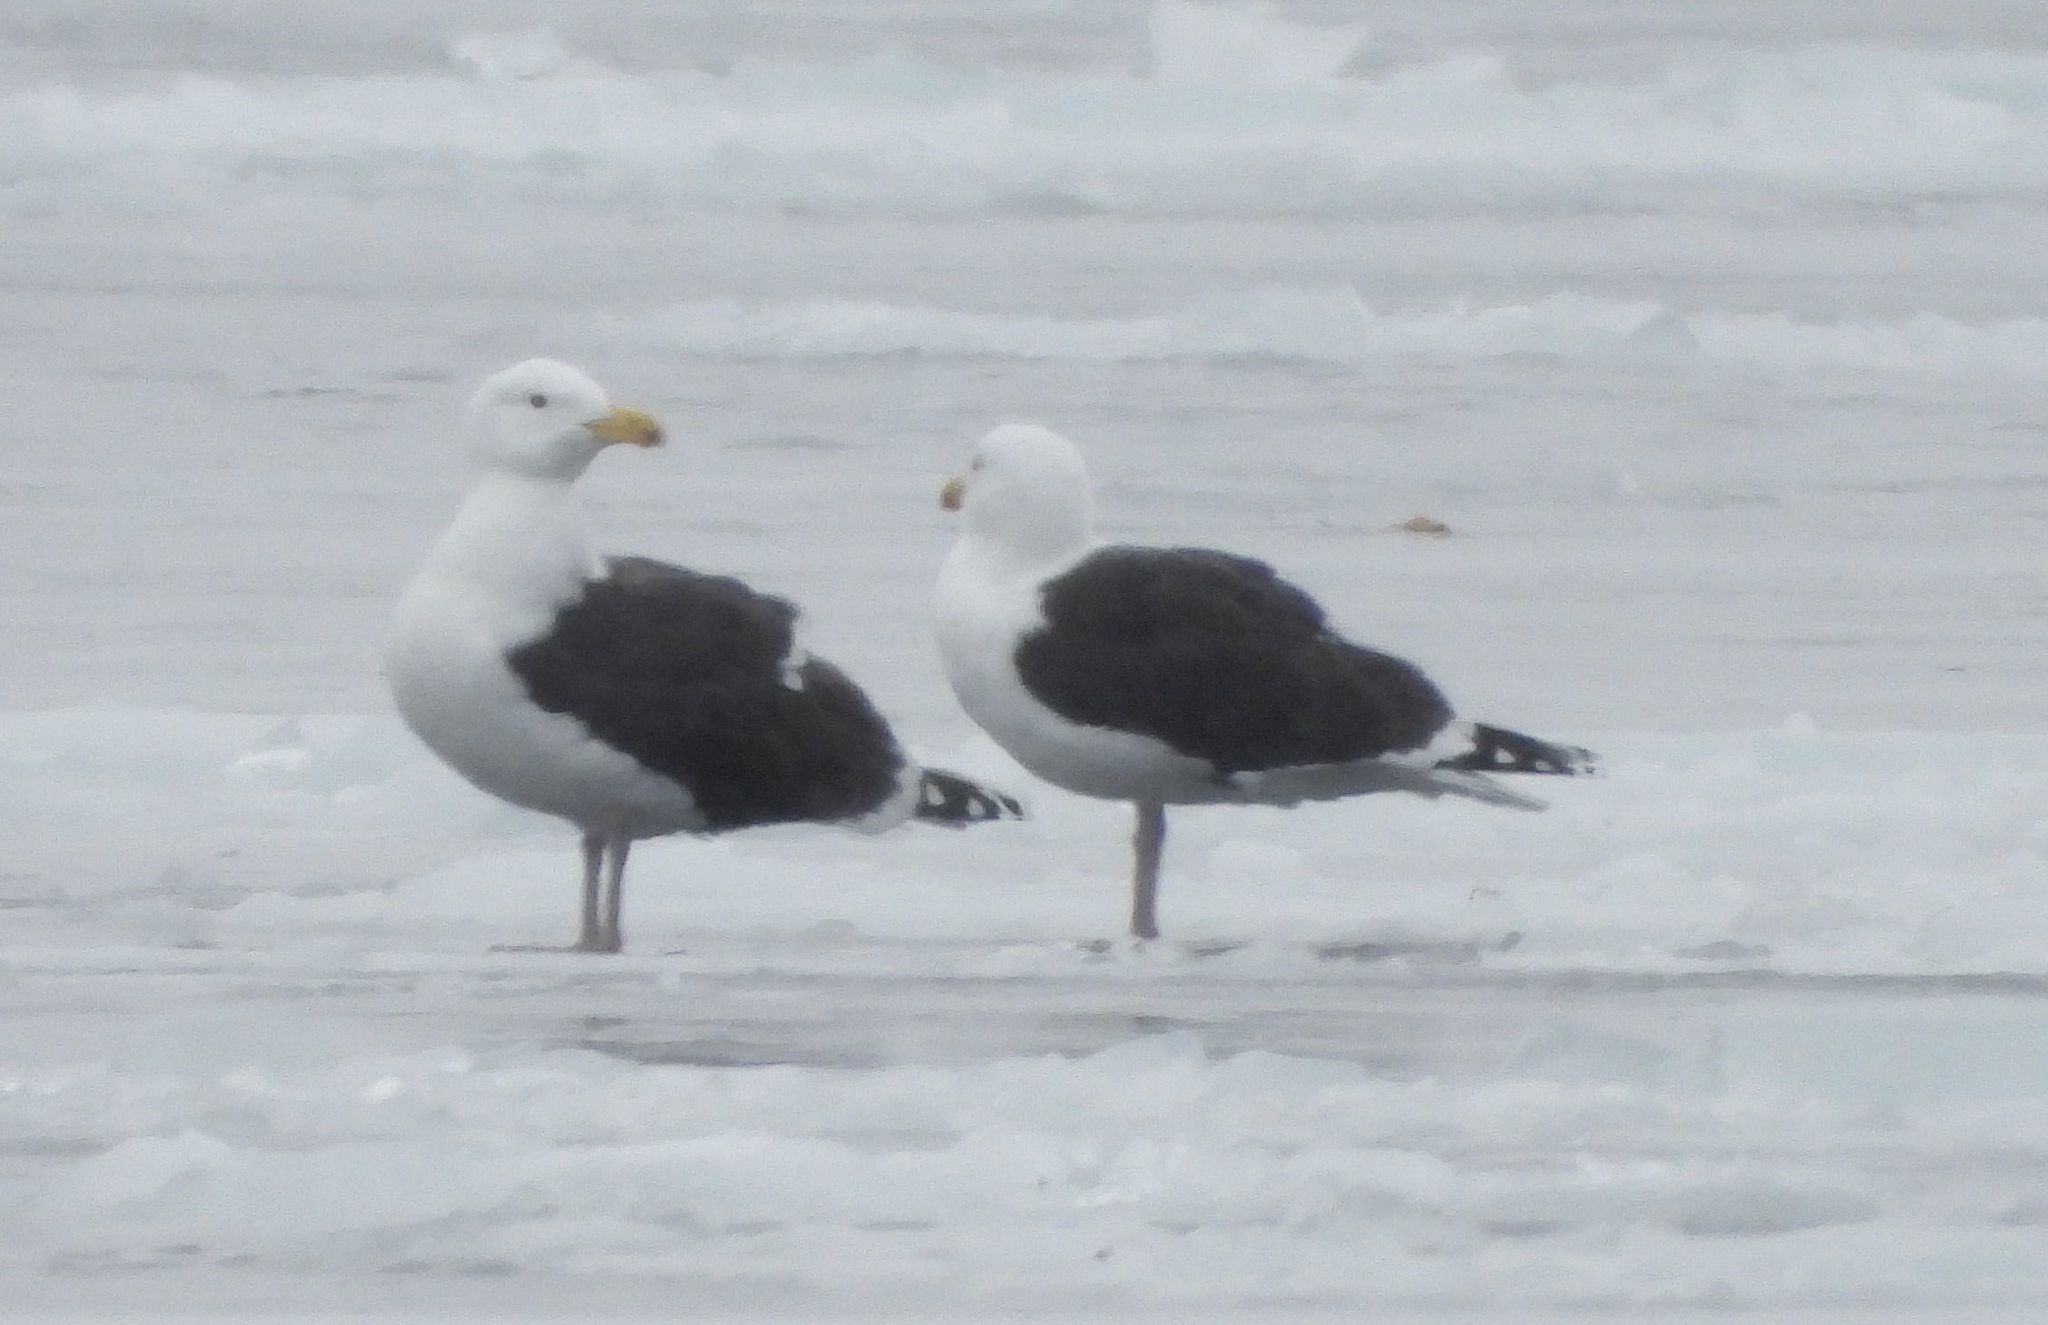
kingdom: Animalia
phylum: Chordata
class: Aves
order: Charadriiformes
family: Laridae
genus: Larus
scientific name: Larus marinus
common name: Great black-backed gull
